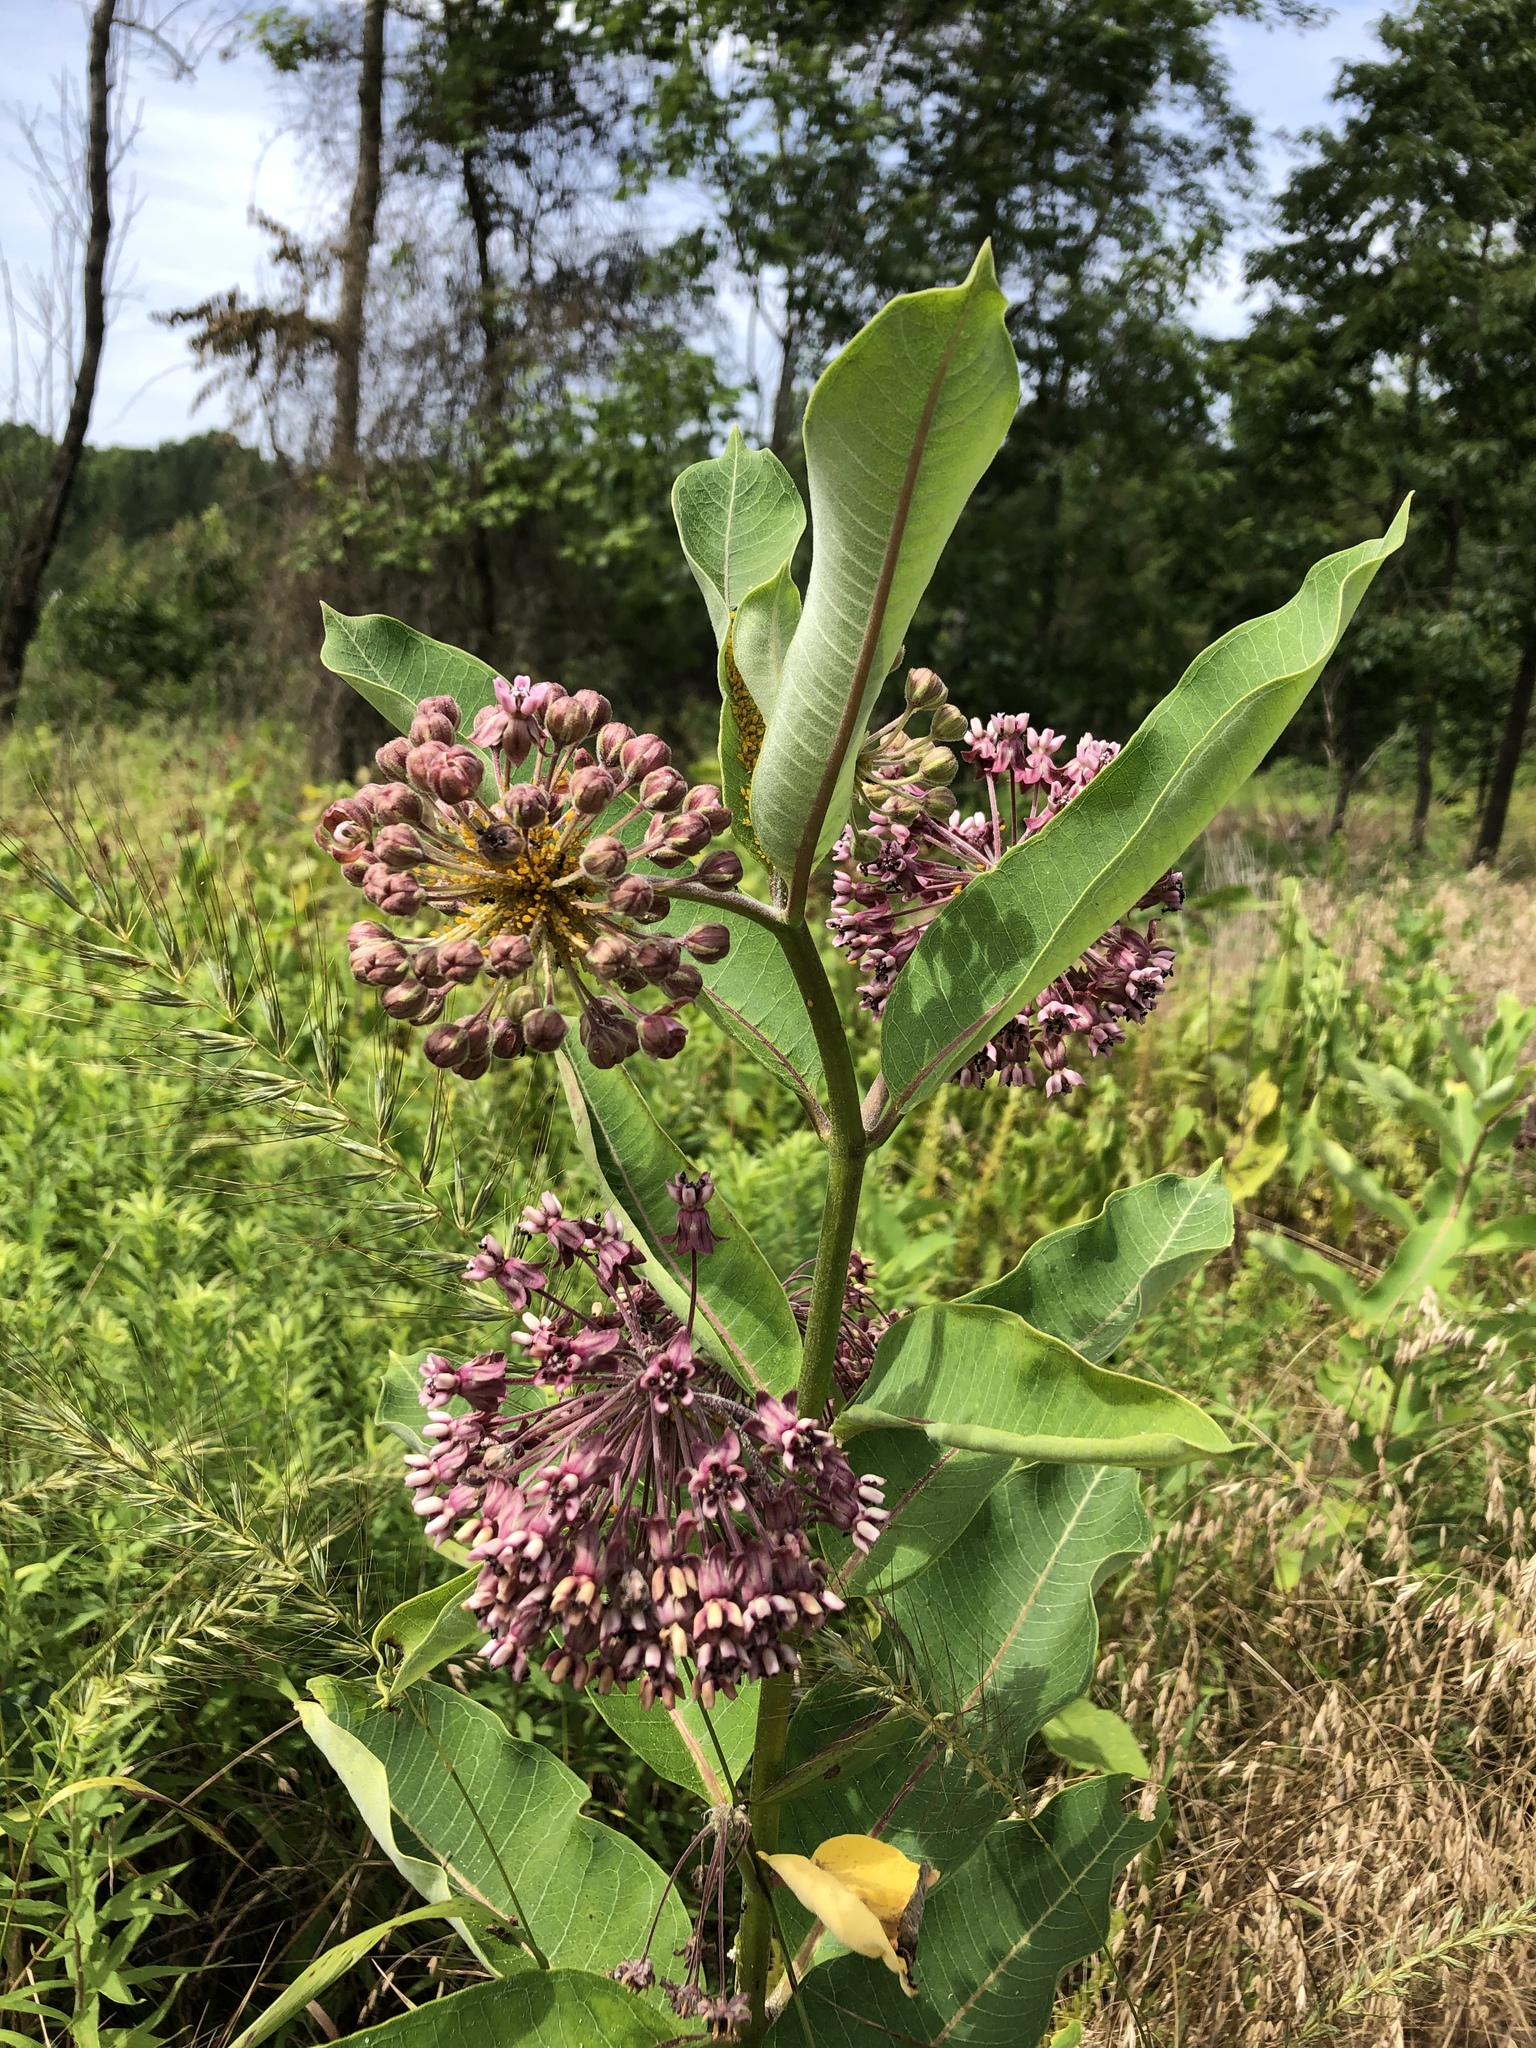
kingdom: Plantae
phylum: Tracheophyta
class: Magnoliopsida
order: Gentianales
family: Apocynaceae
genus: Asclepias
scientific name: Asclepias syriaca
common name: Common milkweed
